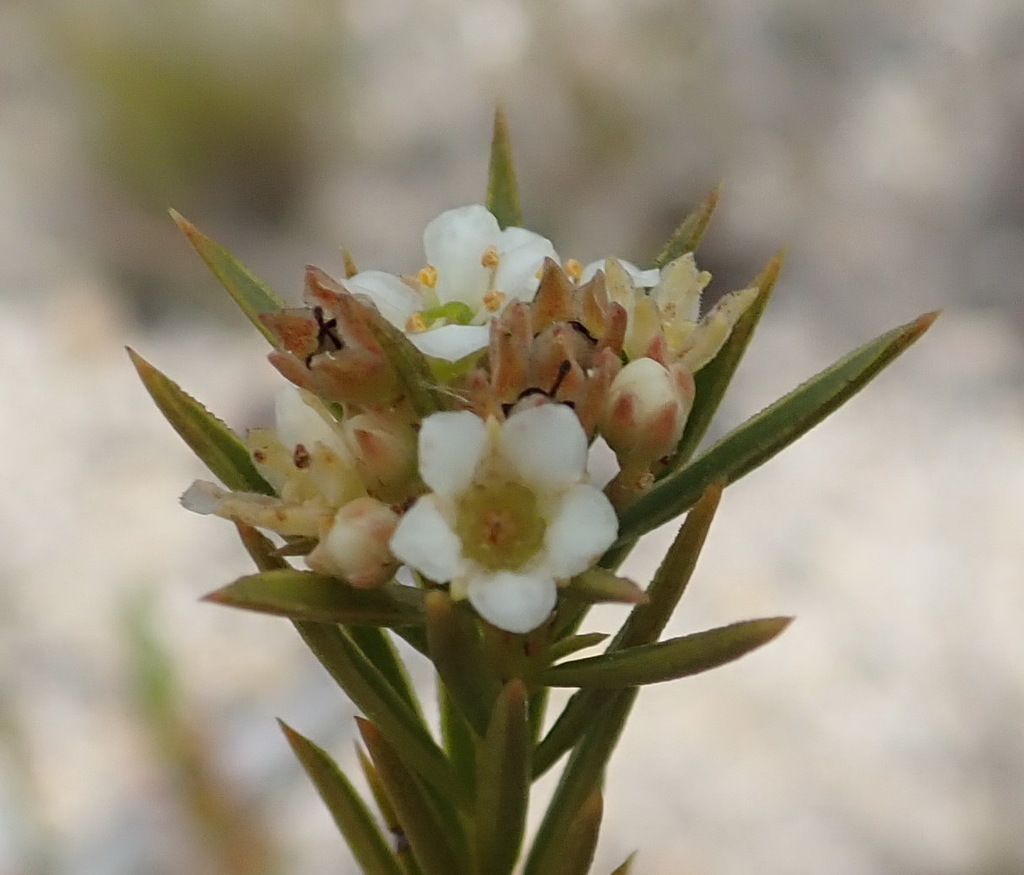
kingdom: Plantae
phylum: Tracheophyta
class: Magnoliopsida
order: Sapindales
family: Rutaceae
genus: Diosma
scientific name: Diosma hirsuta
